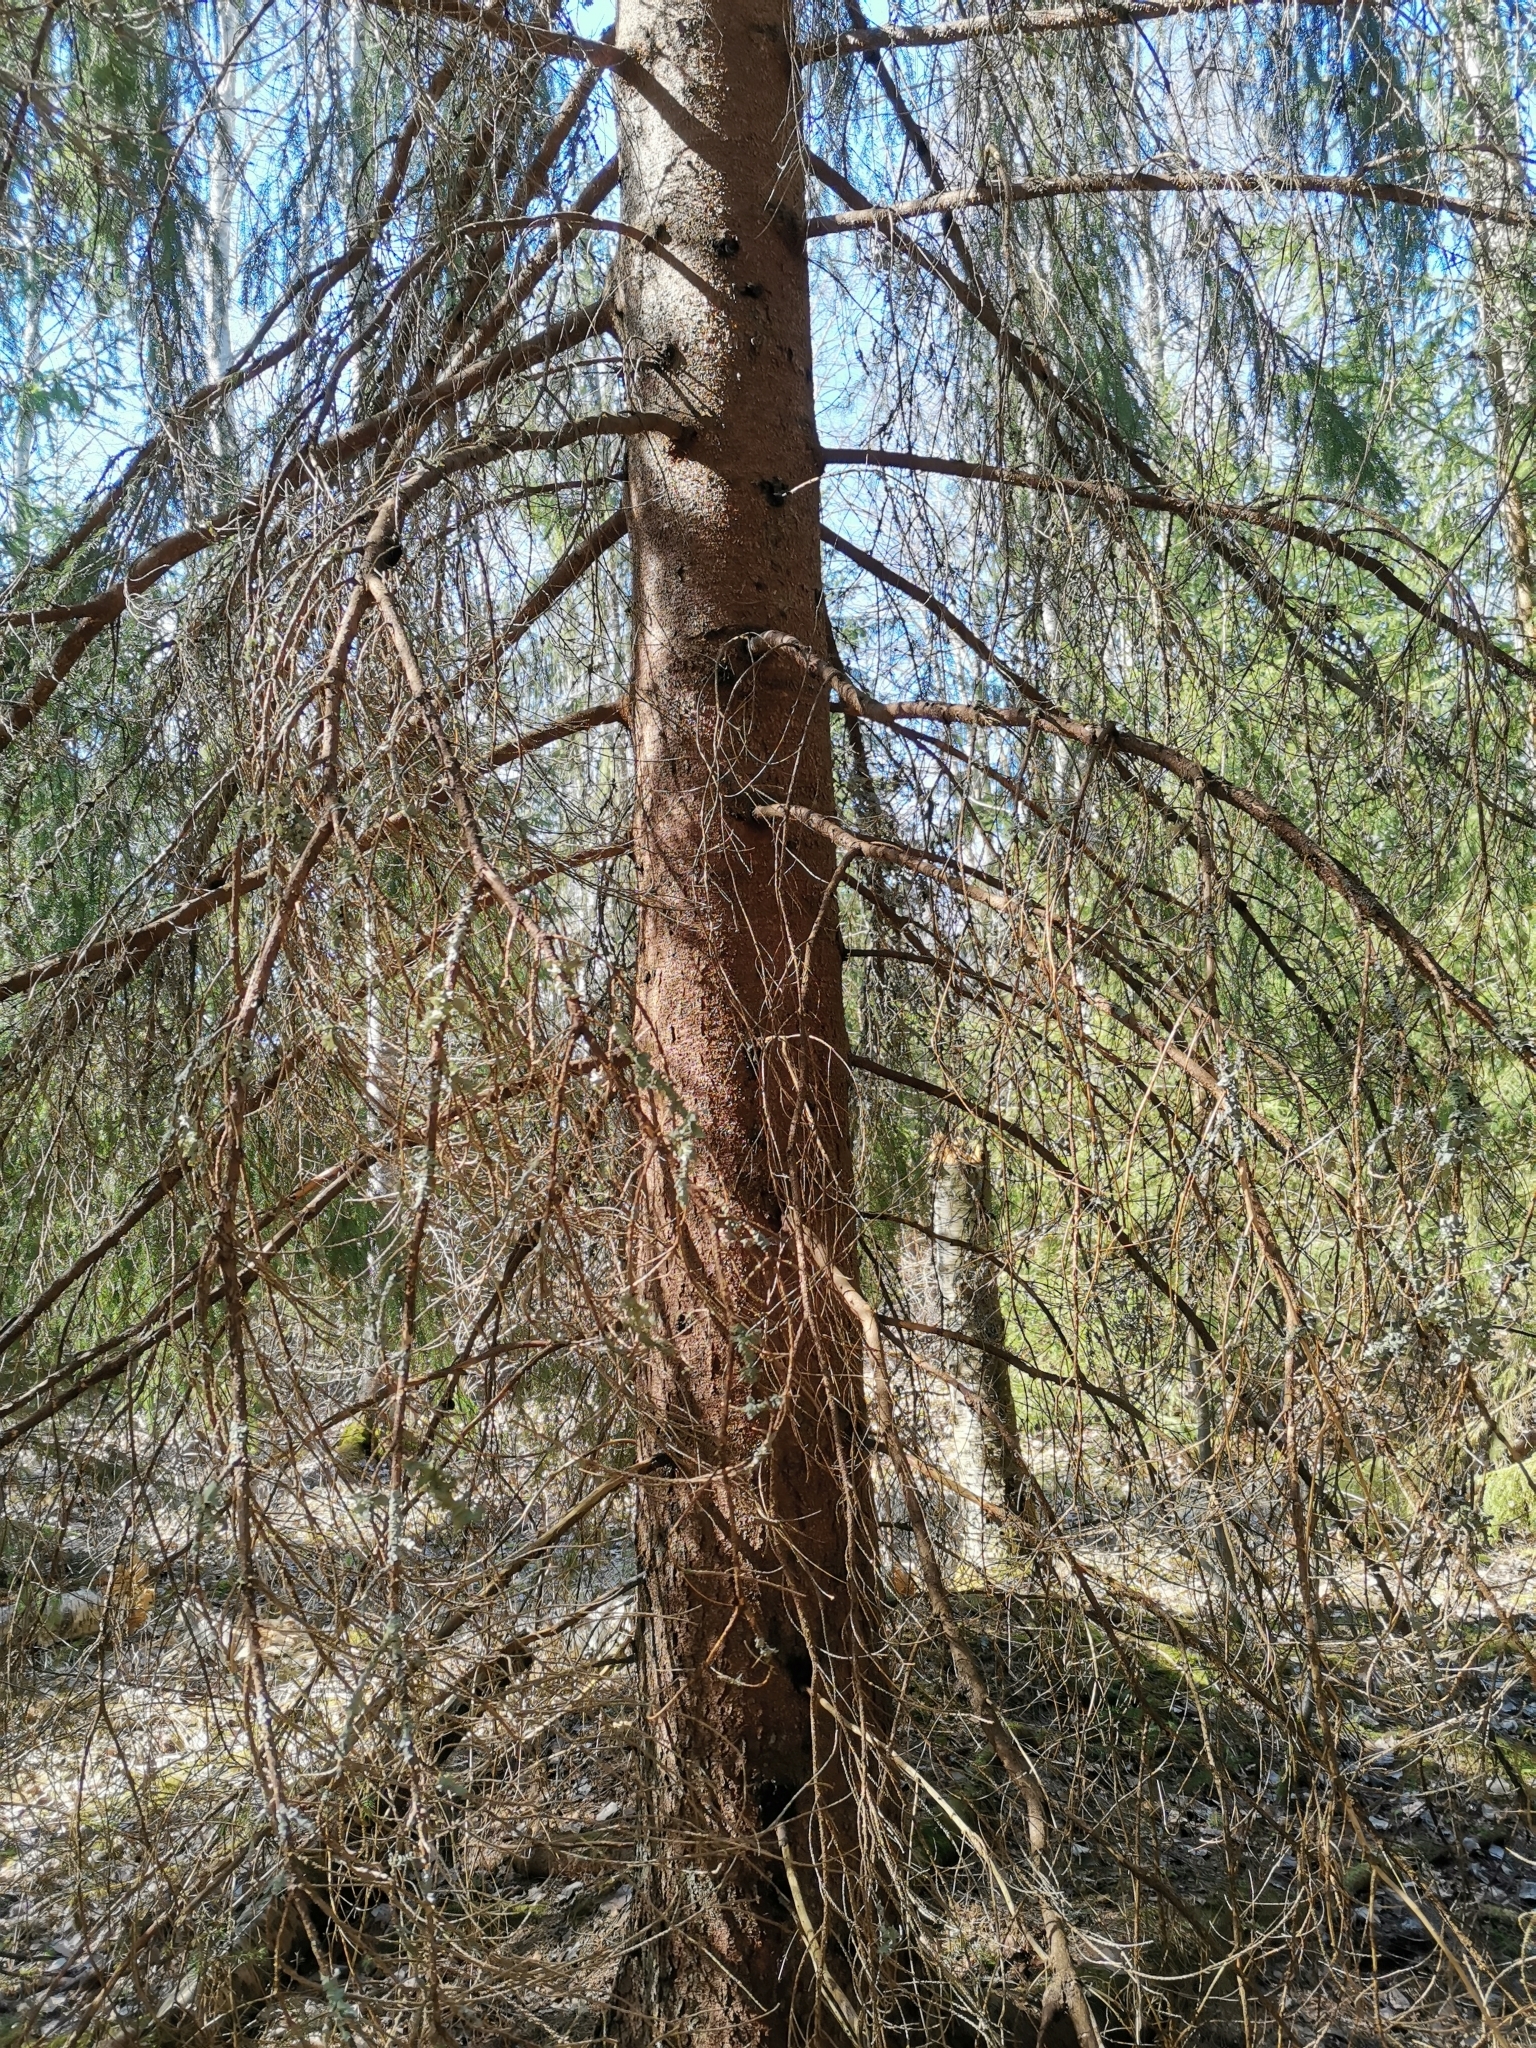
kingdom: Animalia
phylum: Chordata
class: Mammalia
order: Rodentia
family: Sciuridae
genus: Pteromys
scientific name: Pteromys volans
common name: Siberian flying squirrel
